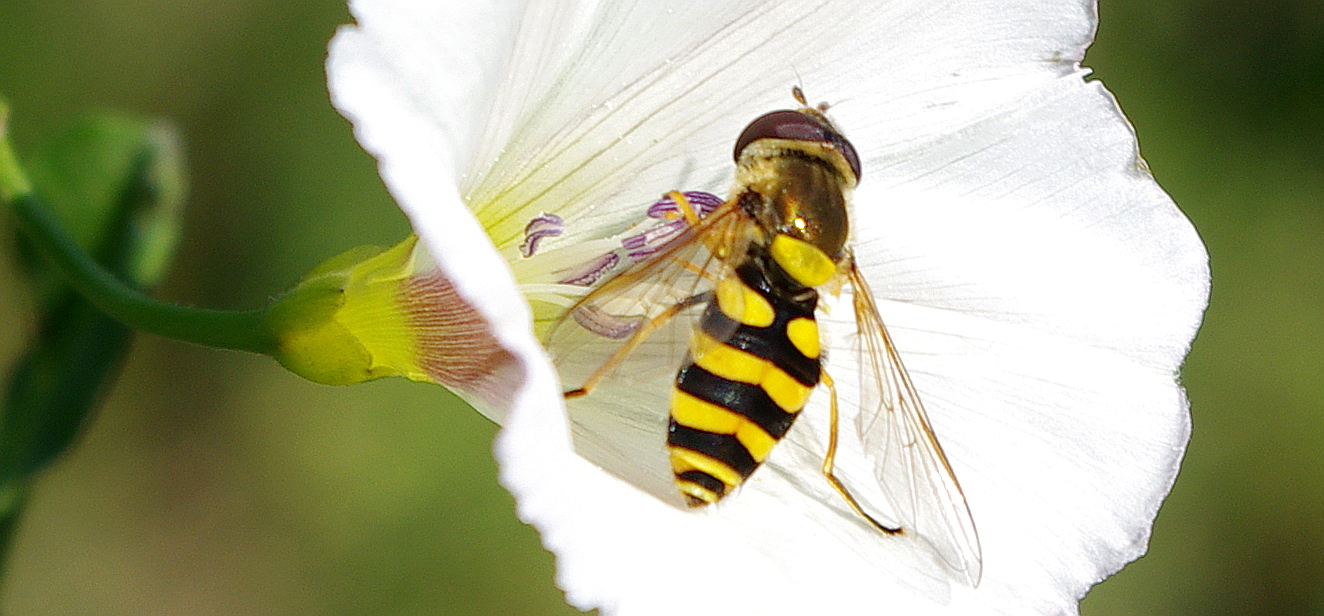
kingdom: Animalia
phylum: Arthropoda
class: Insecta
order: Diptera
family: Syrphidae
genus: Syrphus
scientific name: Syrphus
